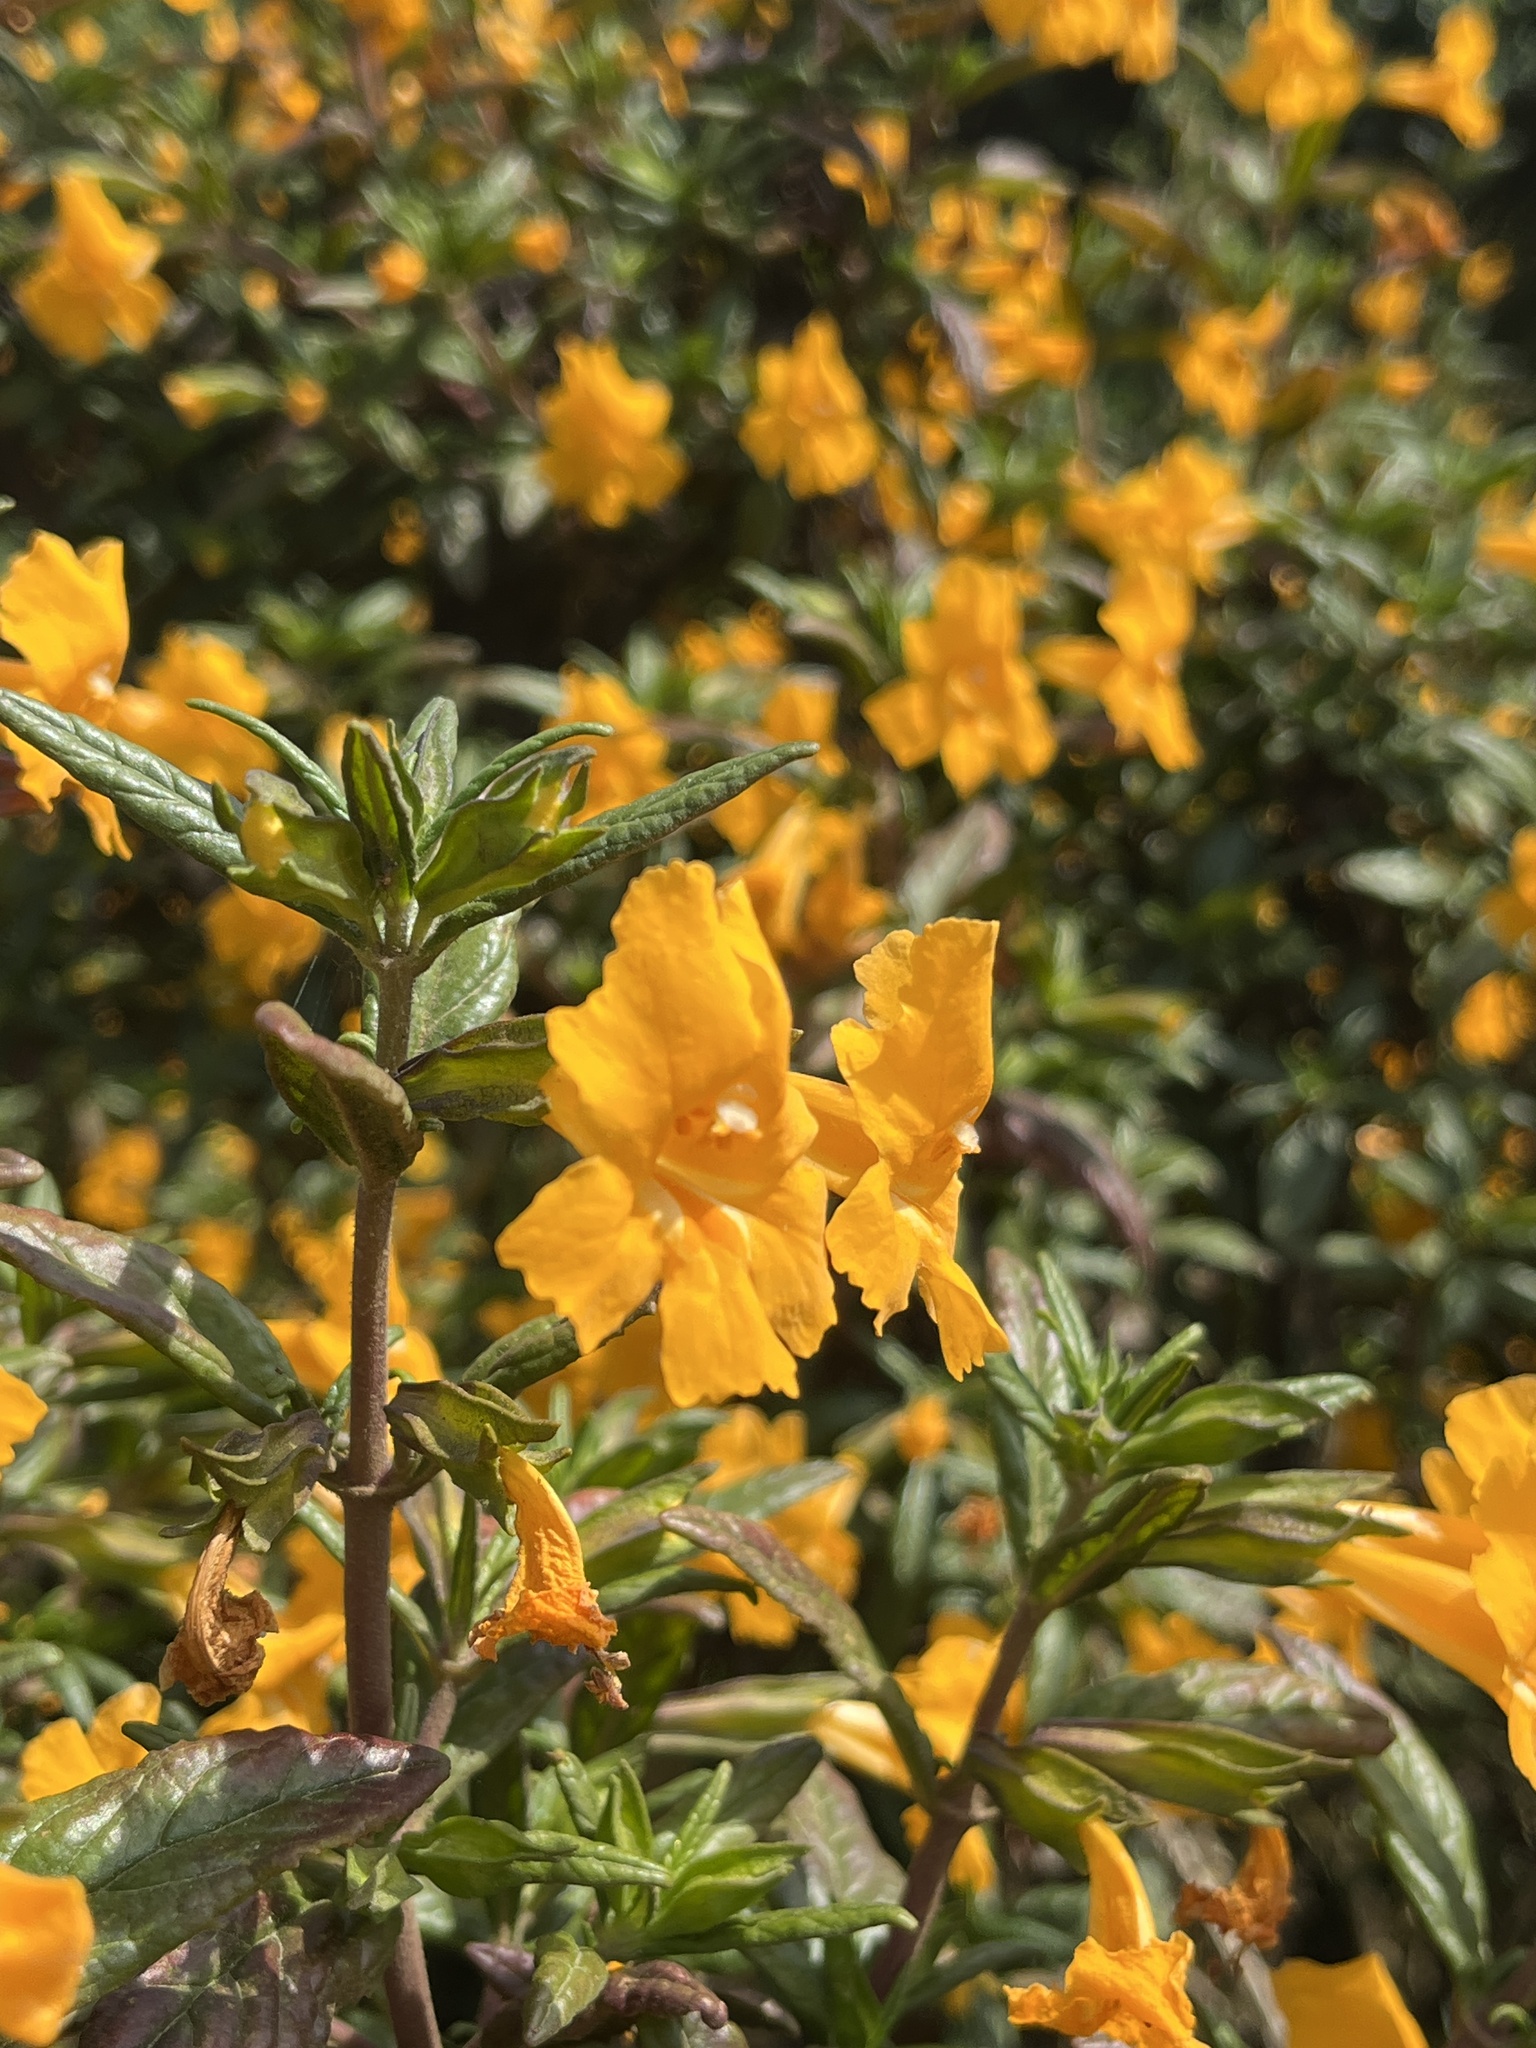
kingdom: Plantae
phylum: Tracheophyta
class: Magnoliopsida
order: Lamiales
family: Phrymaceae
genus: Diplacus
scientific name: Diplacus aurantiacus
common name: Bush monkey-flower
